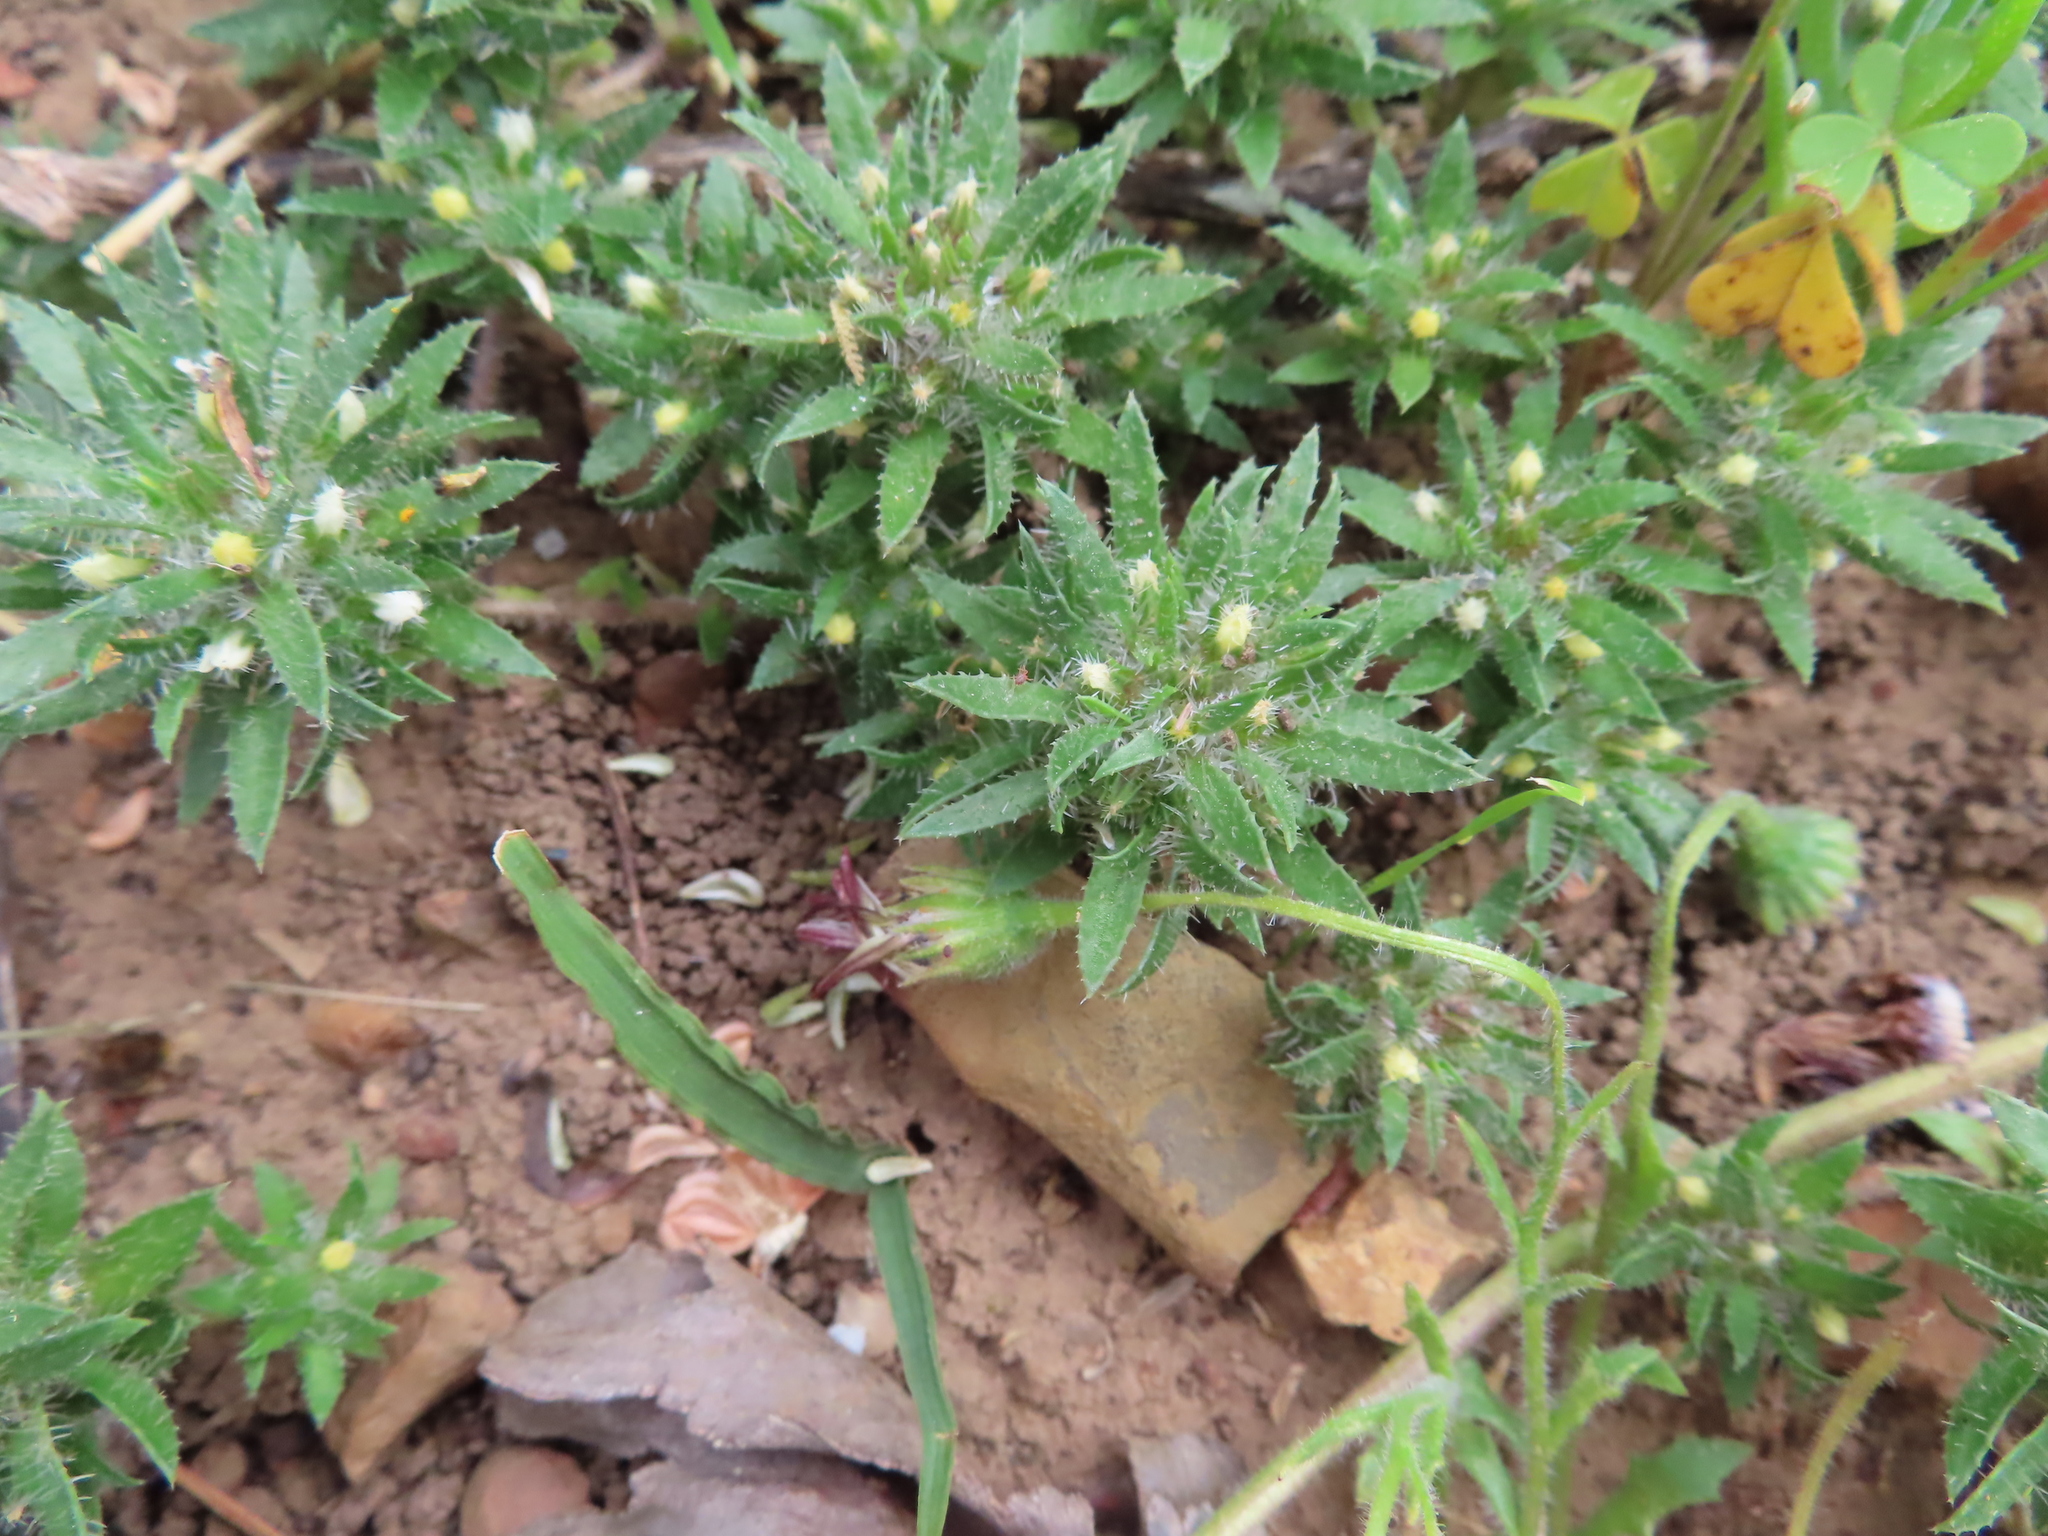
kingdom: Plantae
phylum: Tracheophyta
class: Magnoliopsida
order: Asterales
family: Campanulaceae
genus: Treichelia
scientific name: Treichelia dodii
